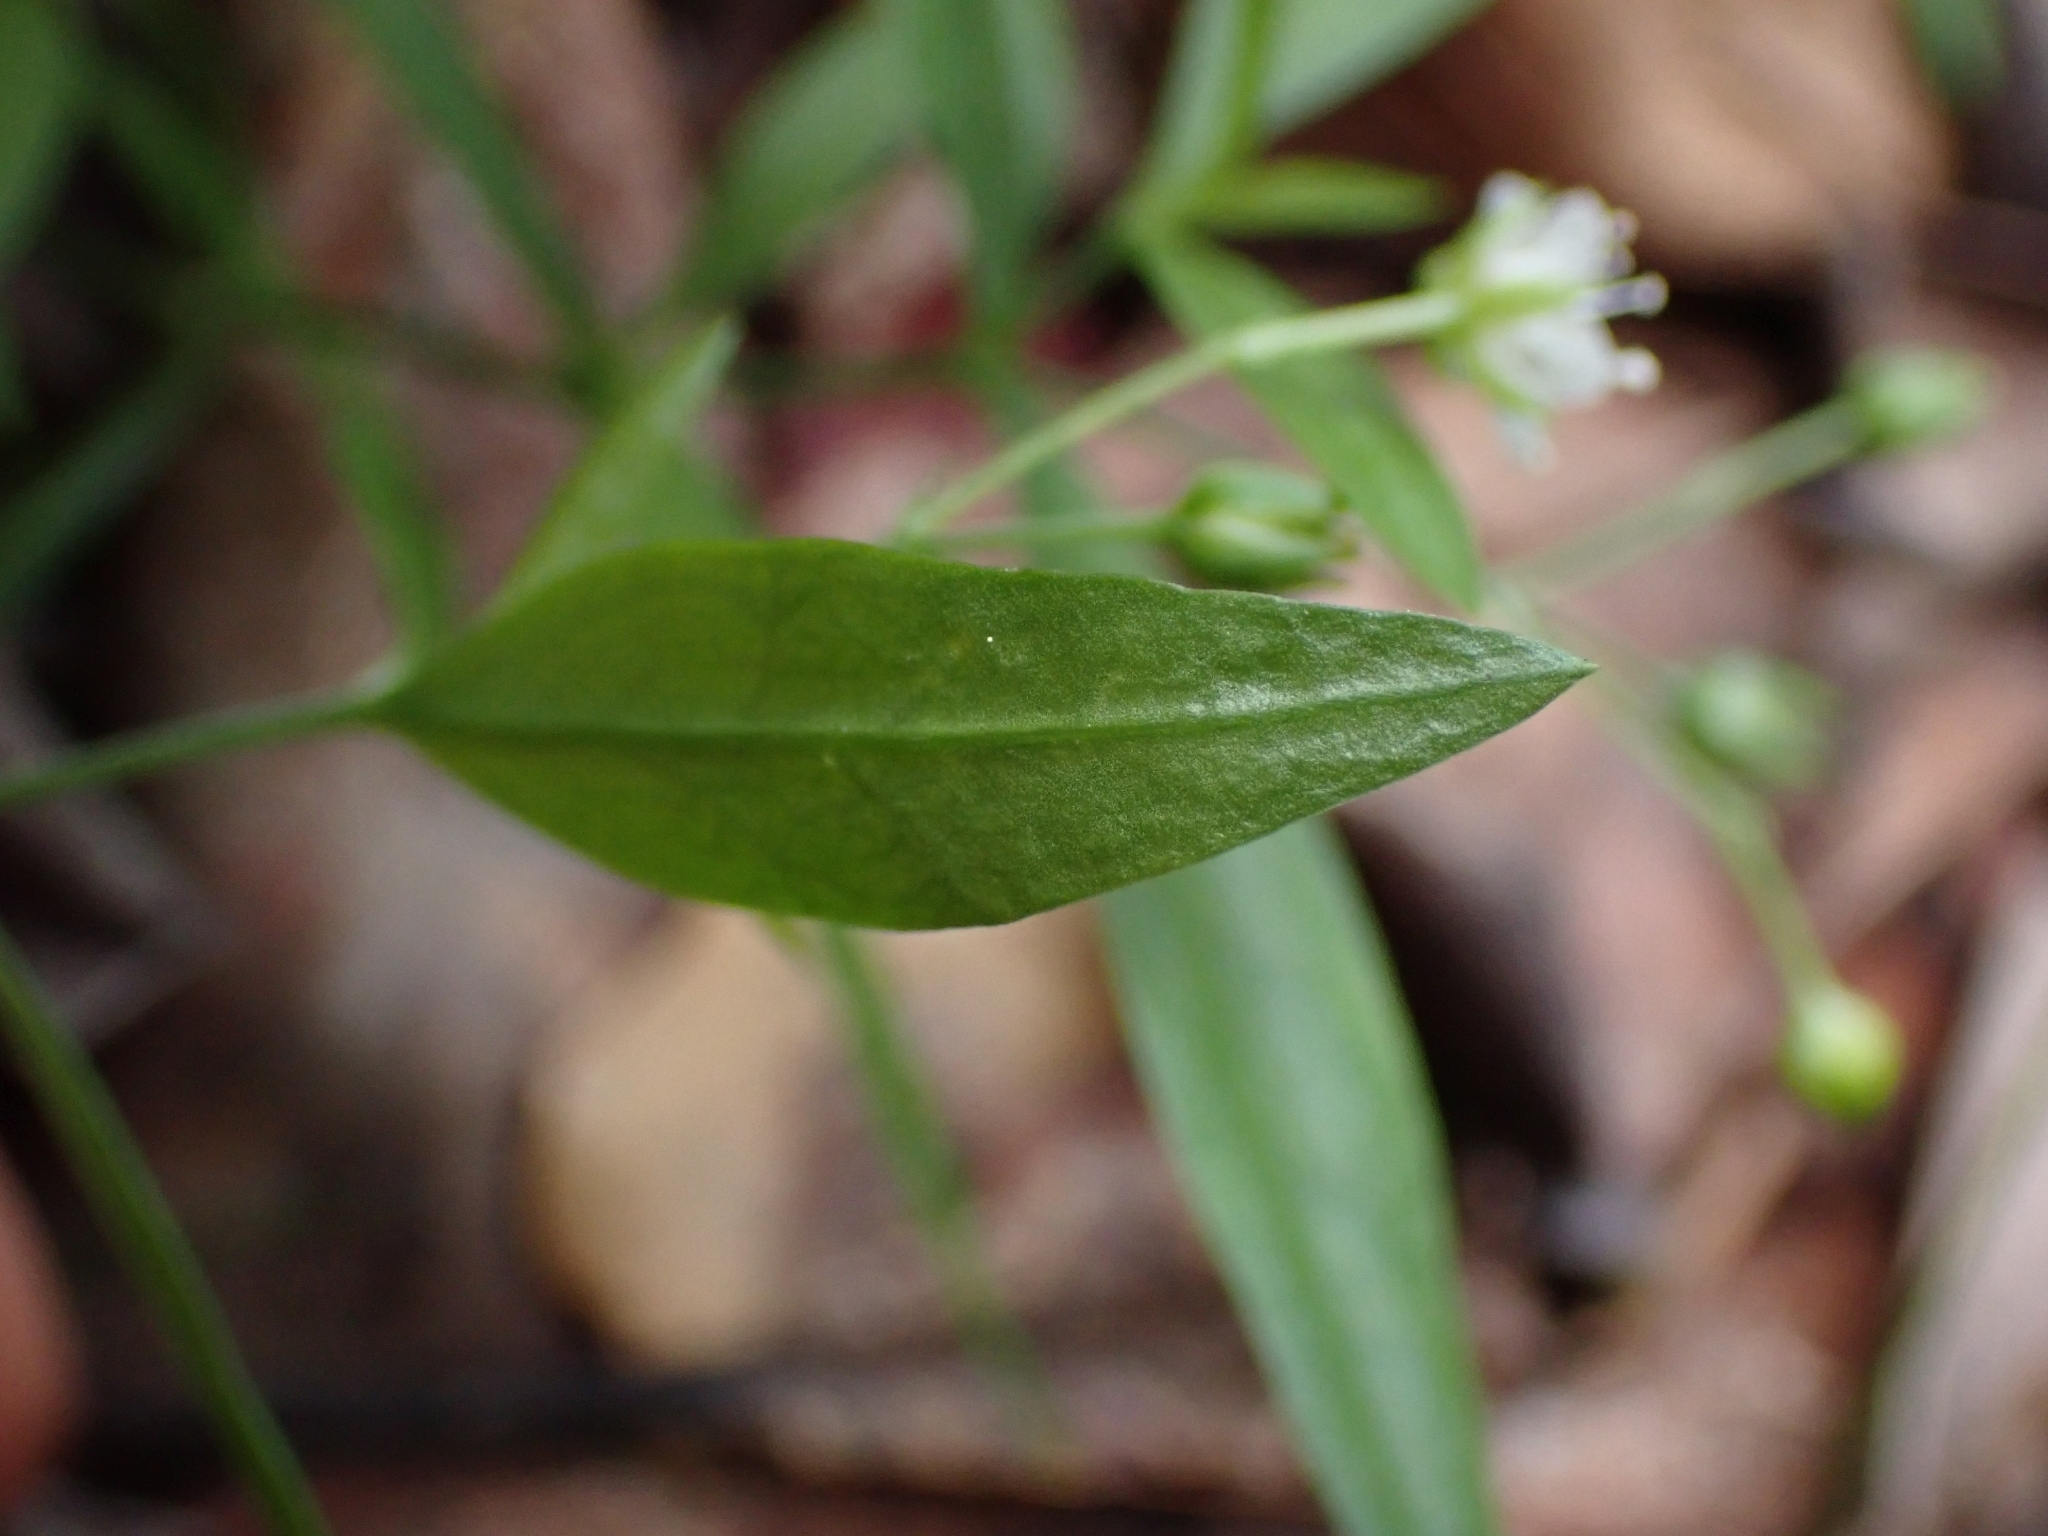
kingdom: Plantae
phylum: Tracheophyta
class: Magnoliopsida
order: Caryophyllales
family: Caryophyllaceae
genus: Moehringia
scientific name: Moehringia macrophylla
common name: Big-leaf sandwort
